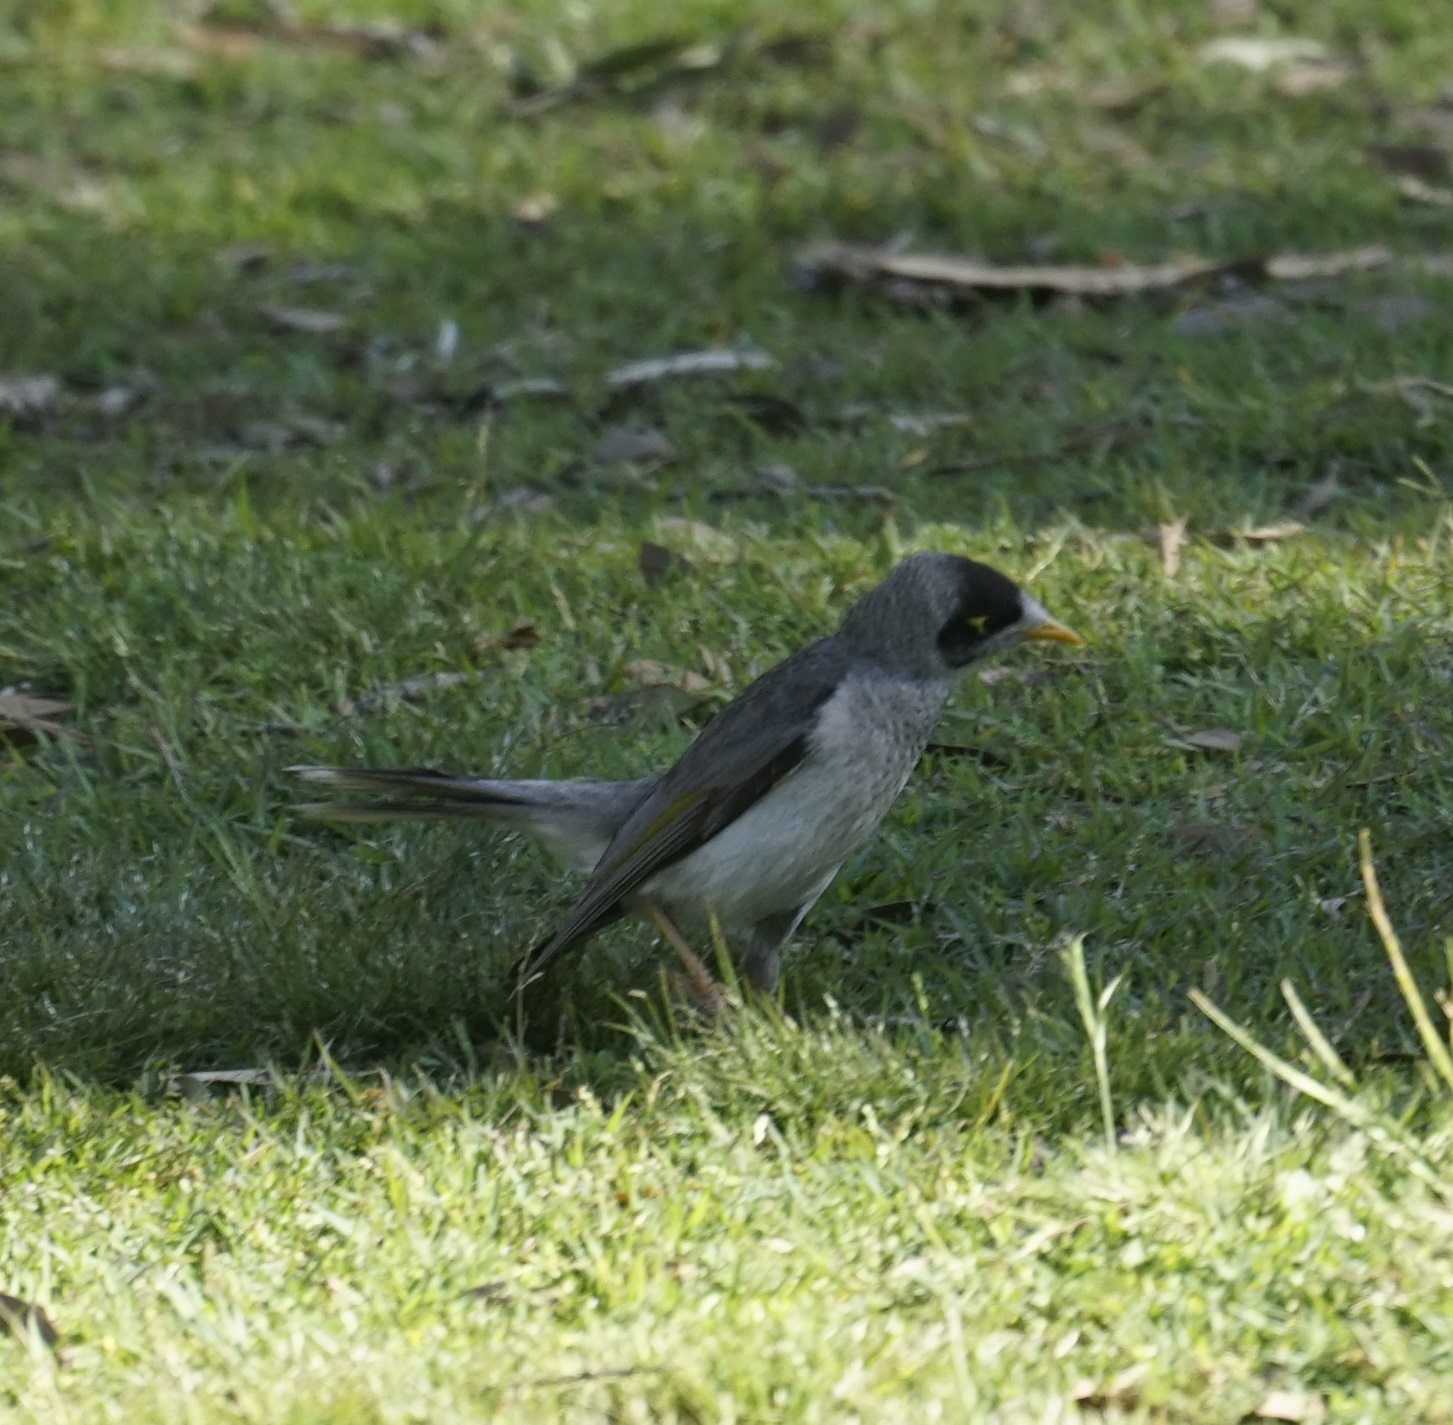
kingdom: Animalia
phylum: Chordata
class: Aves
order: Passeriformes
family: Meliphagidae
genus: Manorina
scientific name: Manorina melanocephala
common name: Noisy miner
